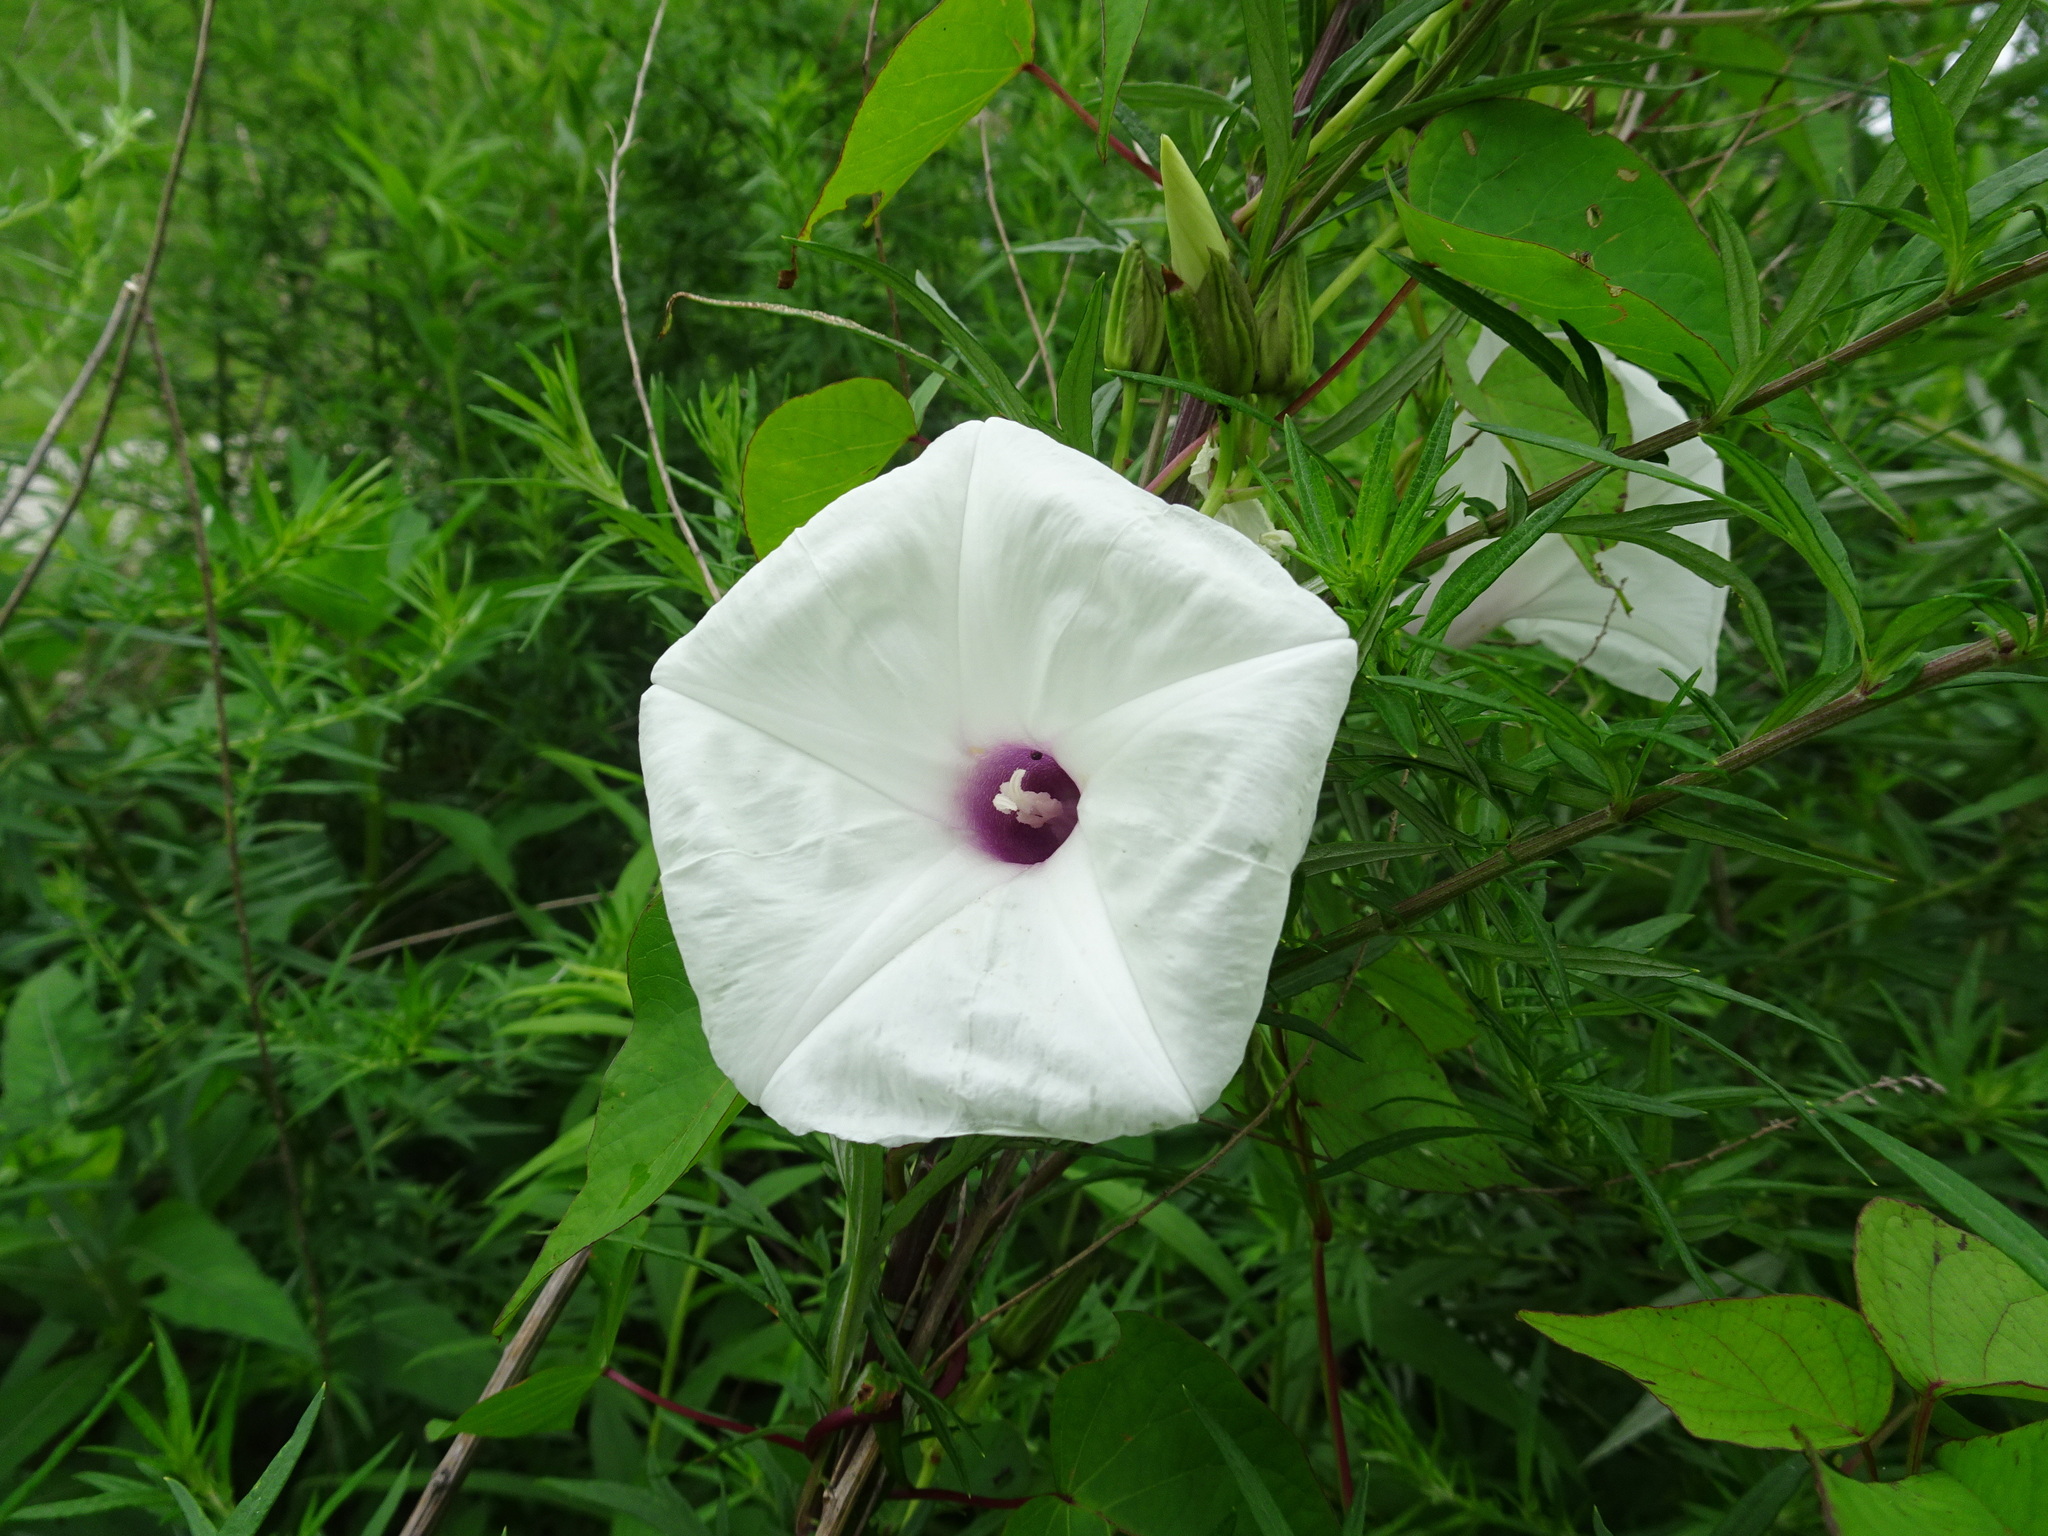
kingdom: Plantae
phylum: Tracheophyta
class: Magnoliopsida
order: Solanales
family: Convolvulaceae
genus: Ipomoea
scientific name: Ipomoea pandurata
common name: Man-of-the-earth
